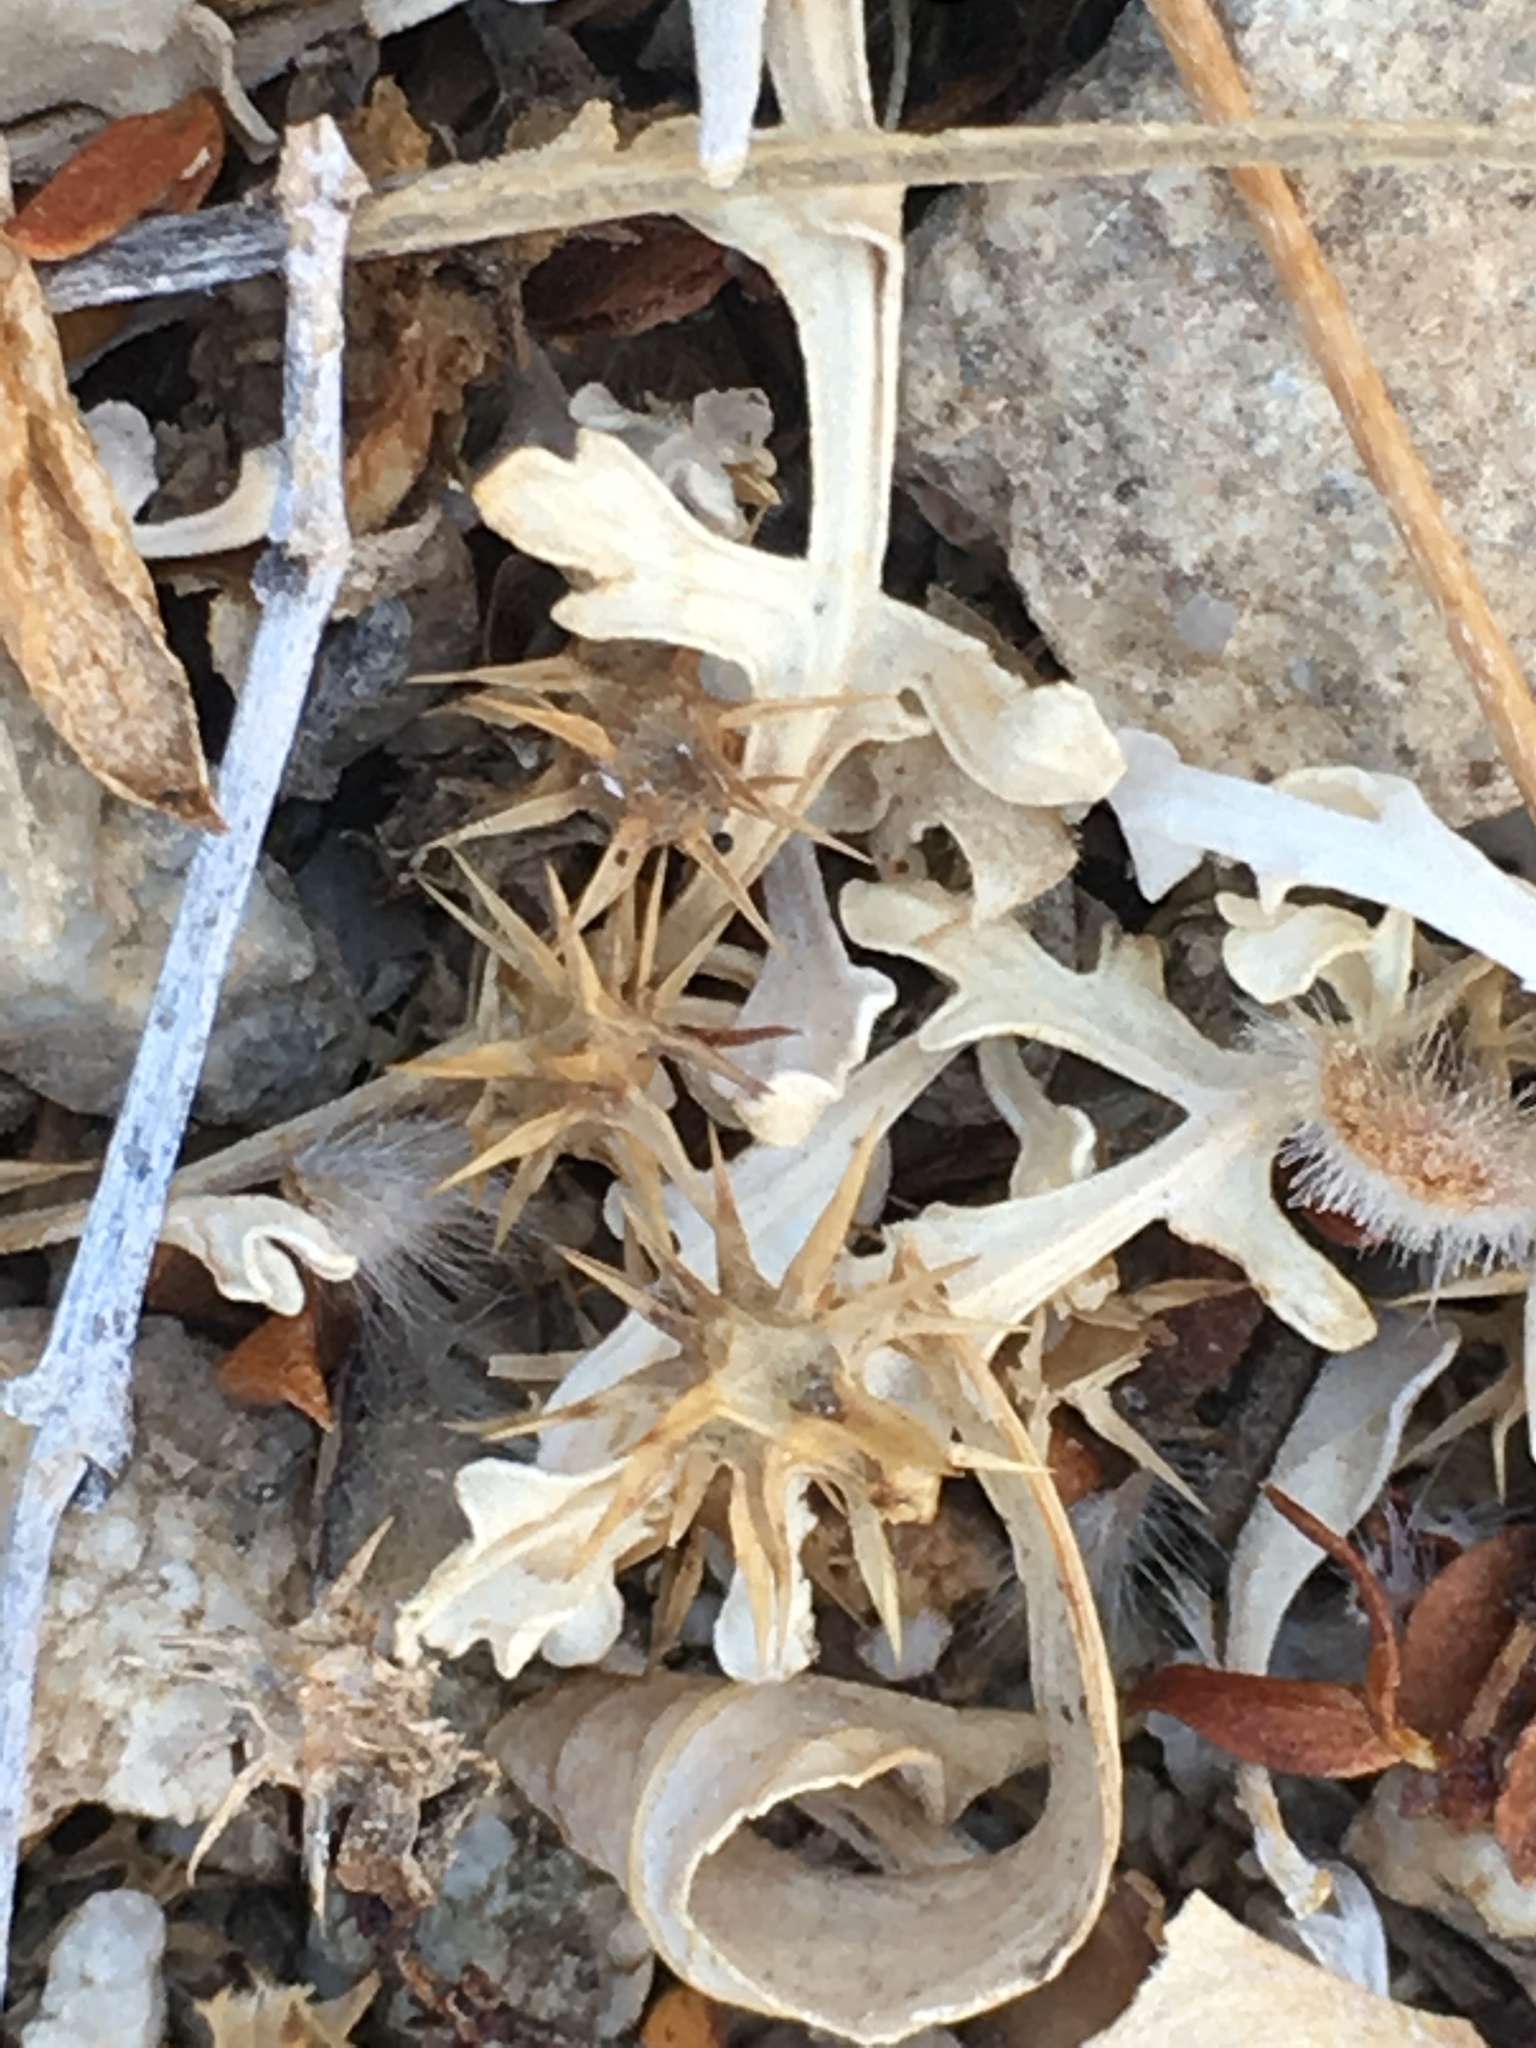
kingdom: Plantae
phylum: Tracheophyta
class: Magnoliopsida
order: Asterales
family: Asteraceae
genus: Ambrosia
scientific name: Ambrosia dumosa
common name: Bur-sage
